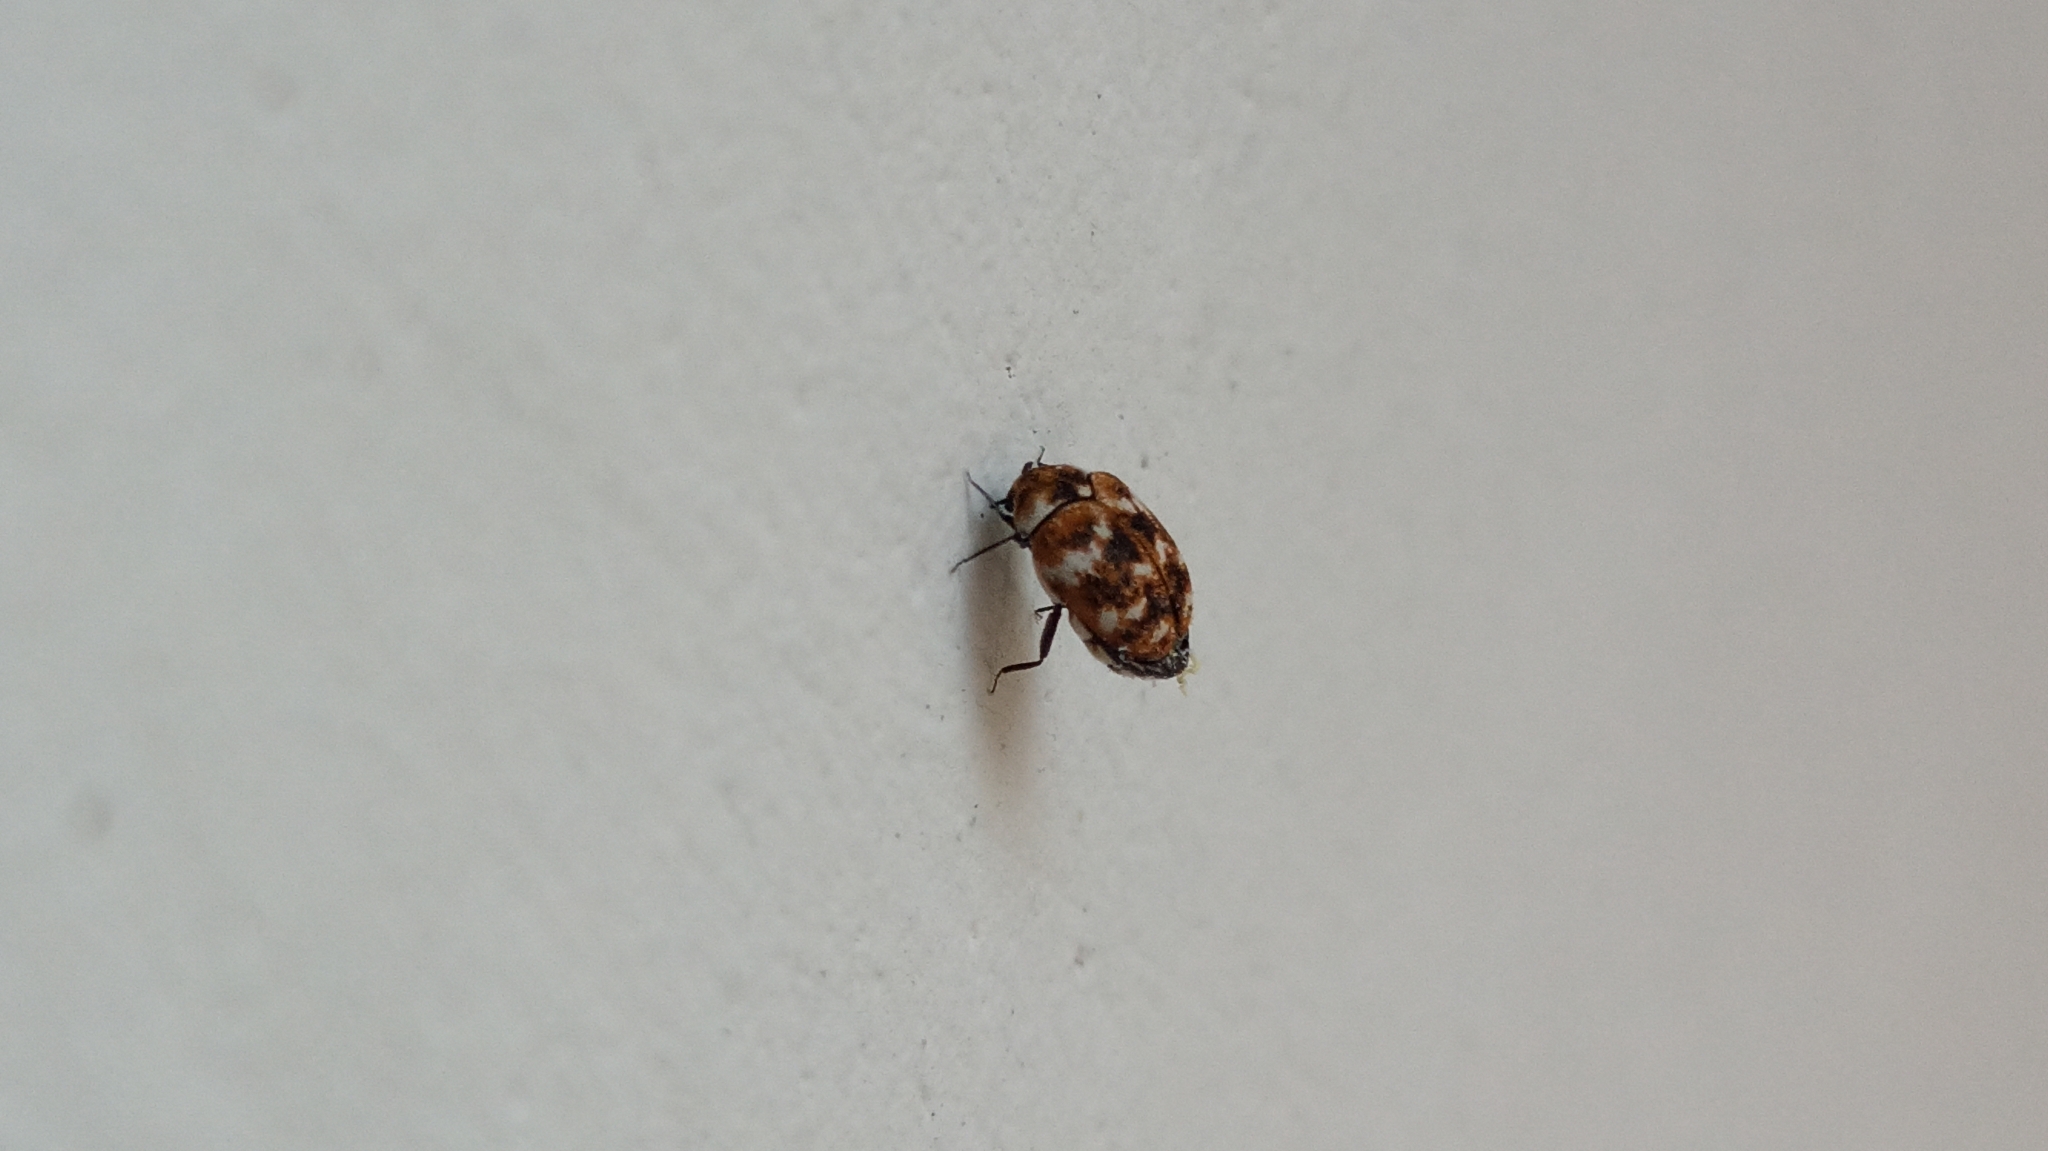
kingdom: Animalia
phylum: Arthropoda
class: Insecta
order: Coleoptera
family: Dermestidae
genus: Anthrenus
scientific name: Anthrenus verbasci
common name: Varied carpet beetle
